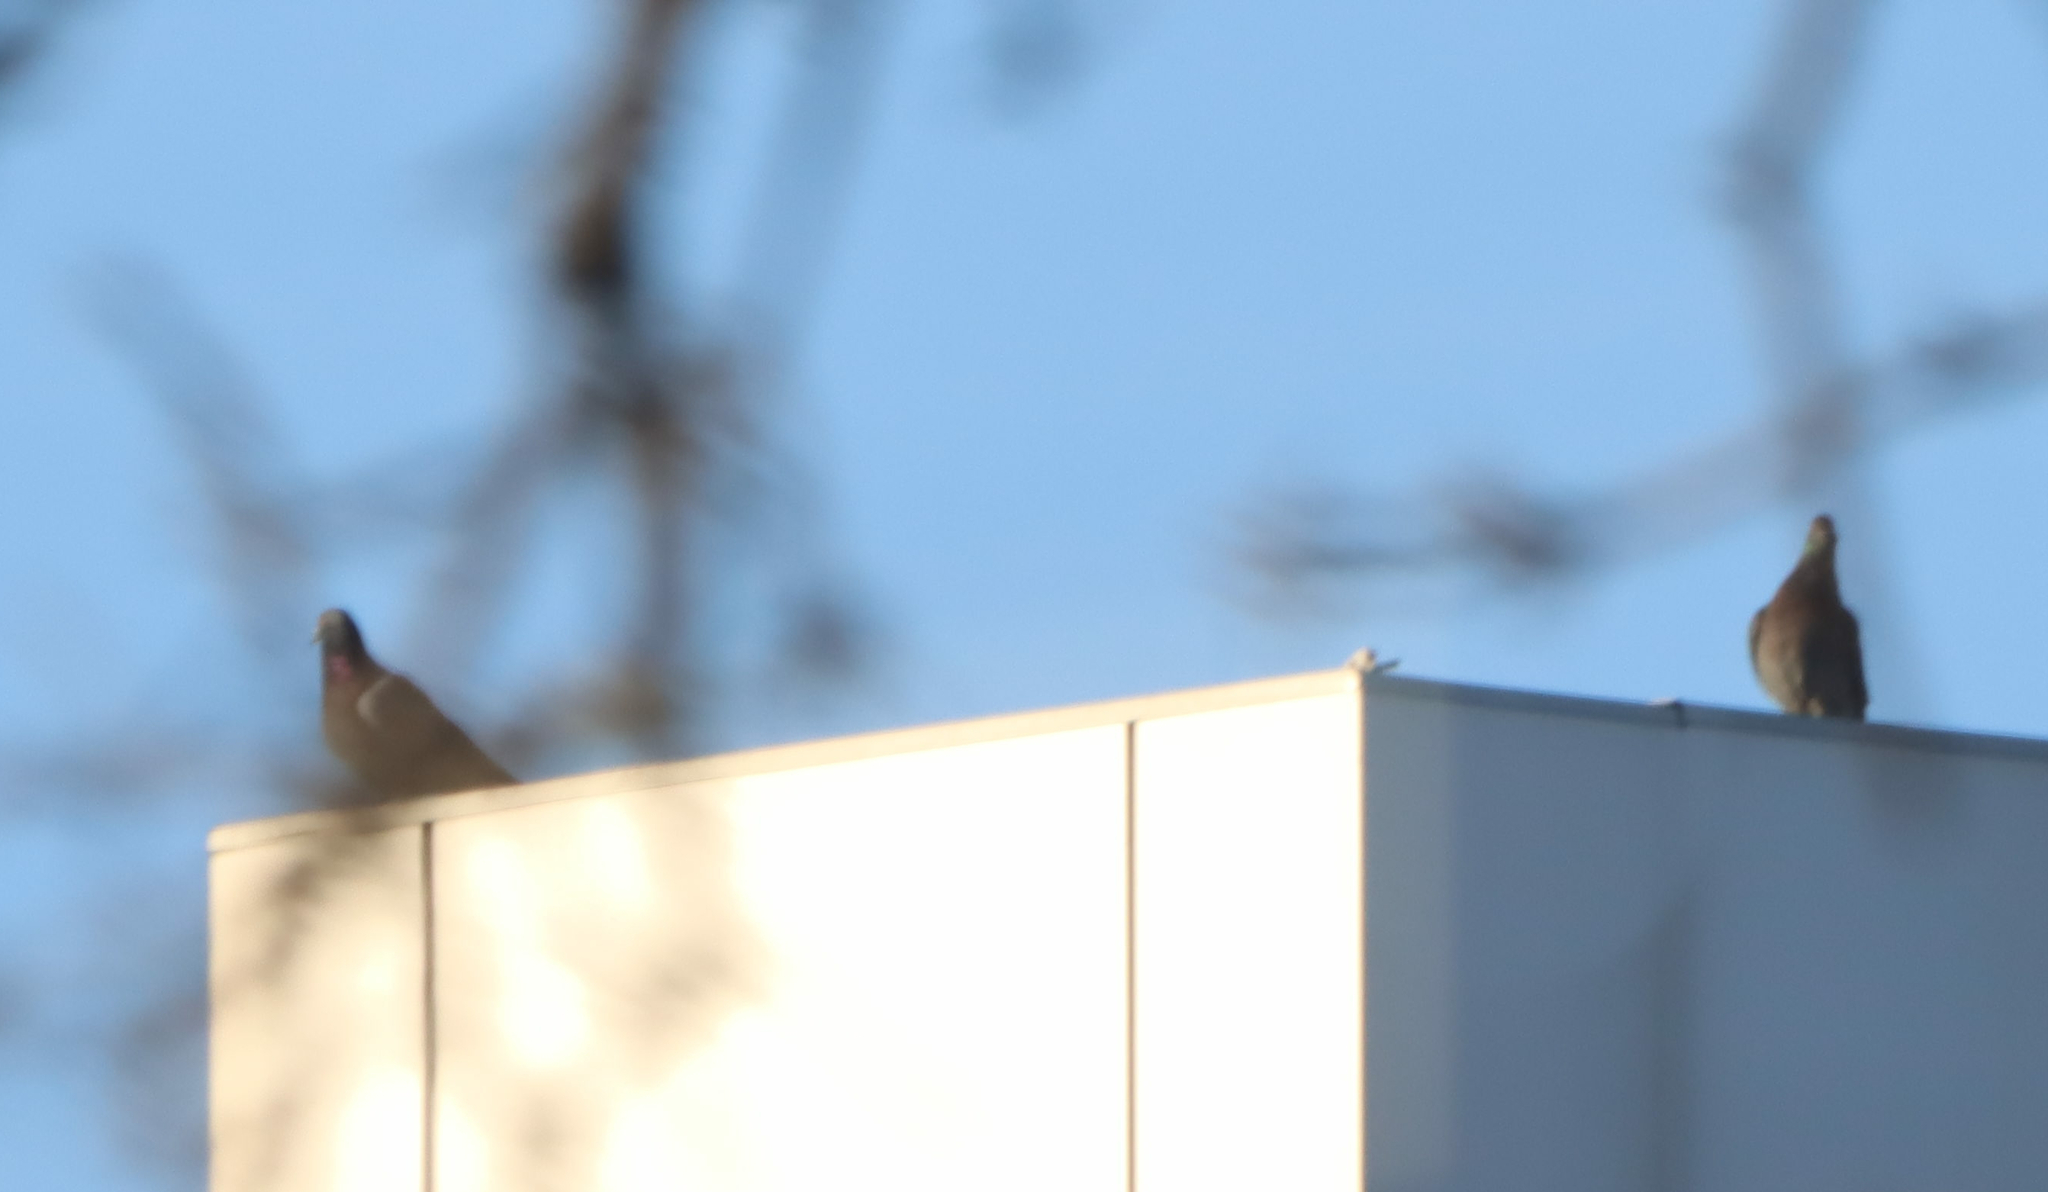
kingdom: Animalia
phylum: Chordata
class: Aves
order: Columbiformes
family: Columbidae
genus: Columba
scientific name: Columba livia
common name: Rock pigeon
